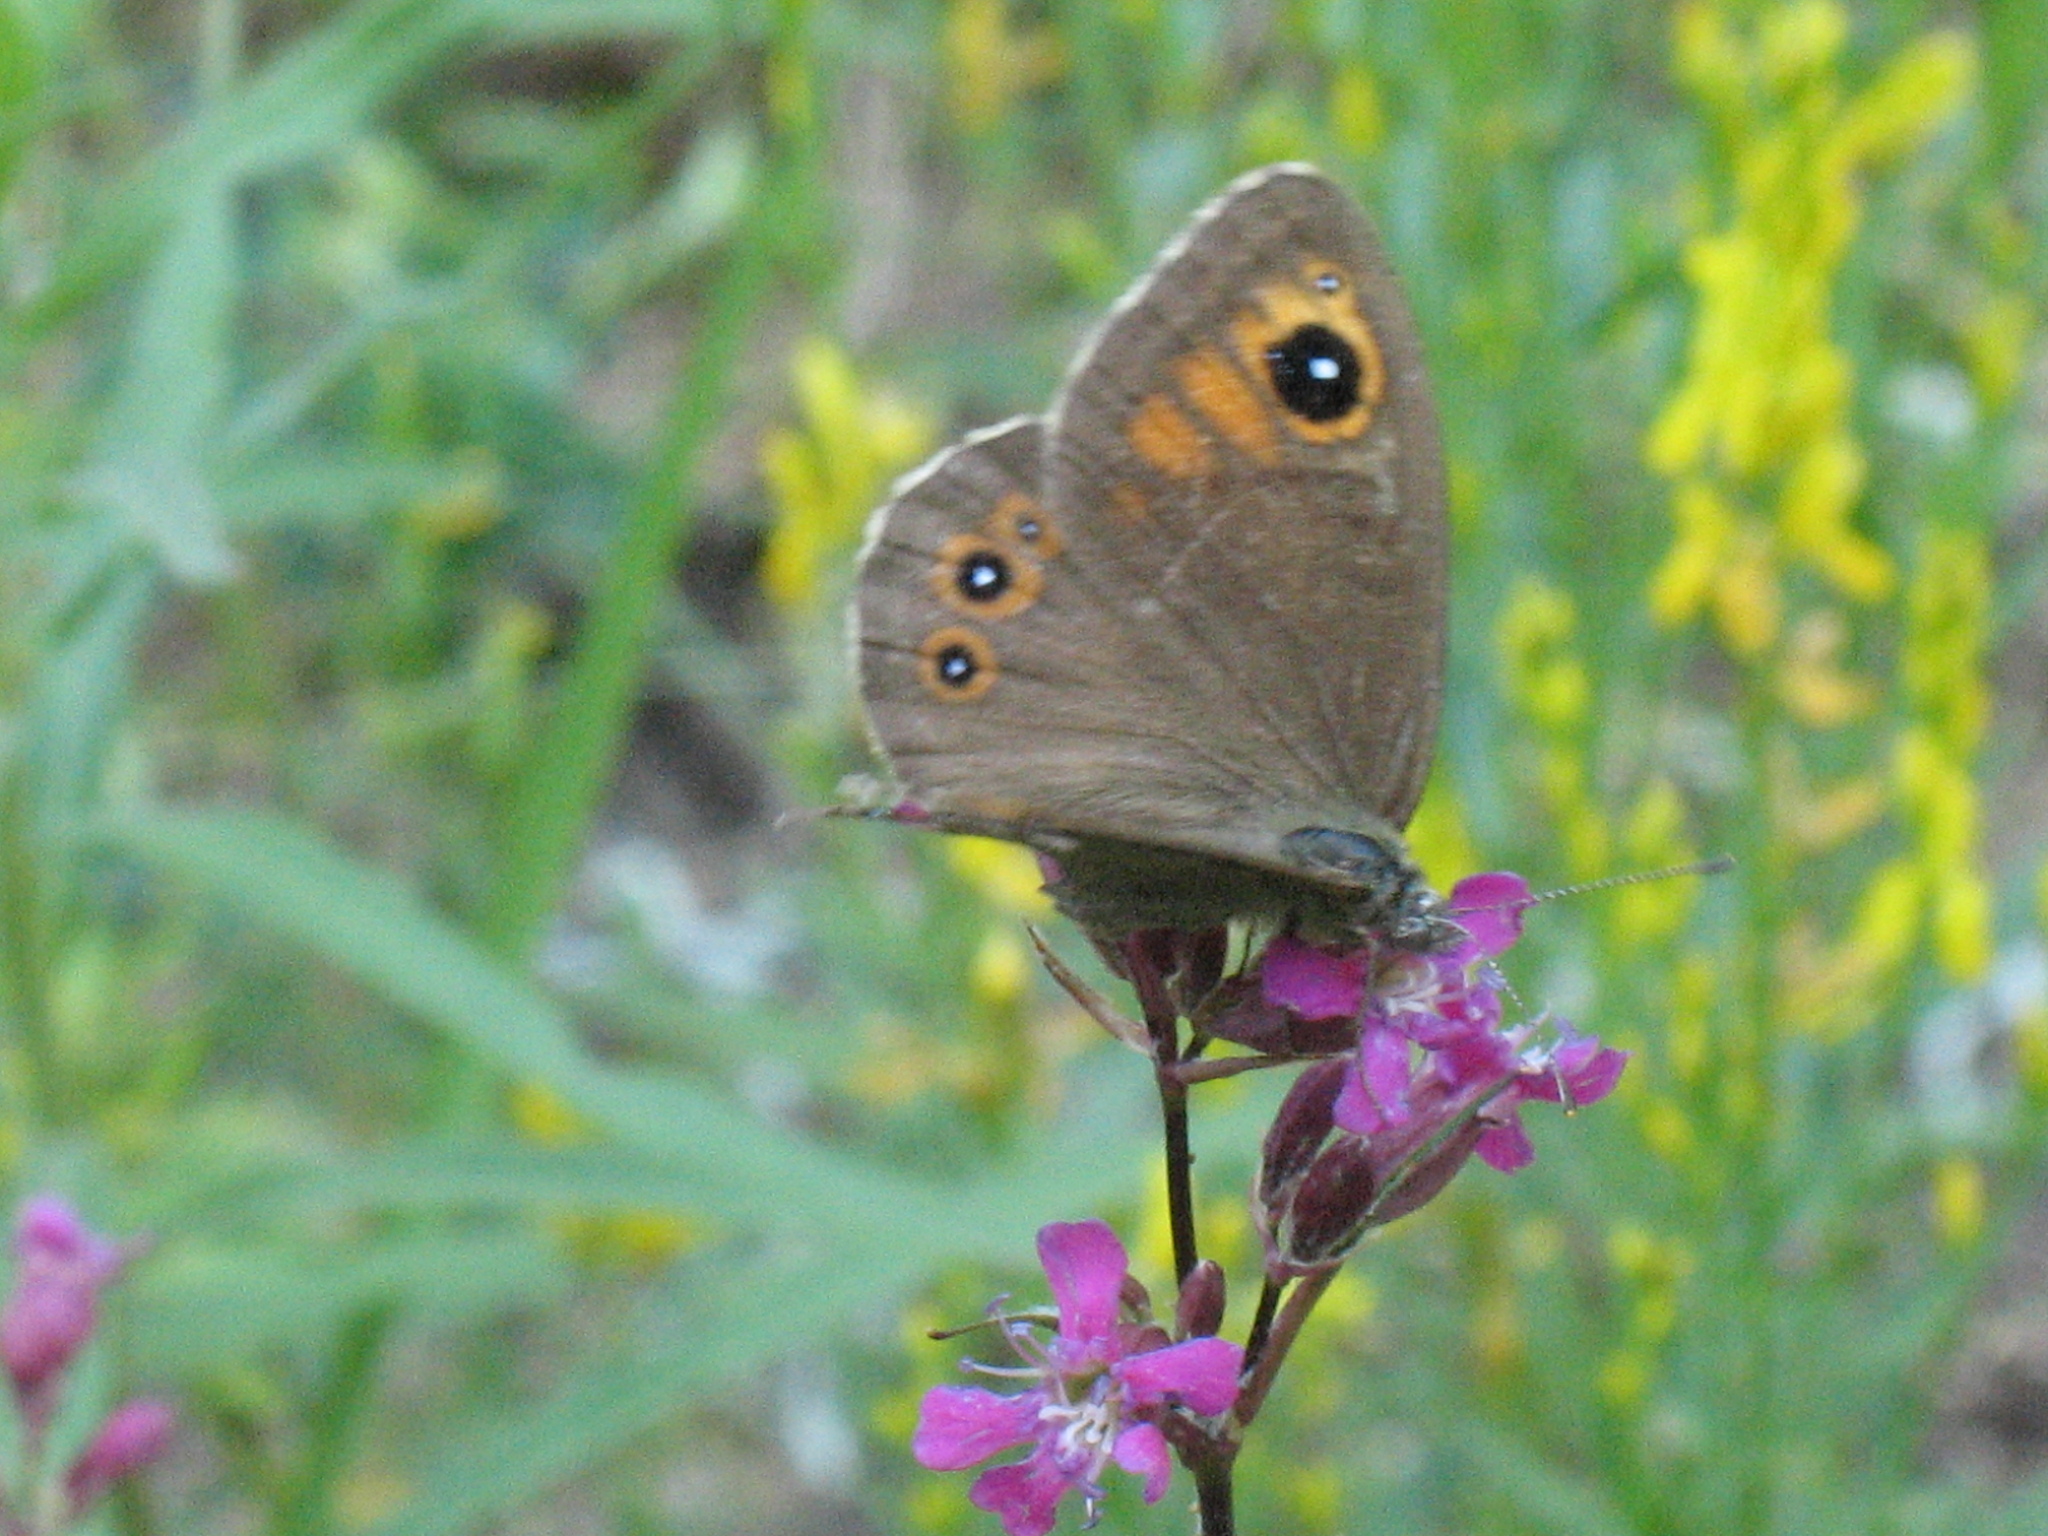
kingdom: Animalia
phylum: Arthropoda
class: Insecta
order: Lepidoptera
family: Nymphalidae
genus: Pararge
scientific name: Pararge Lasiommata maera
